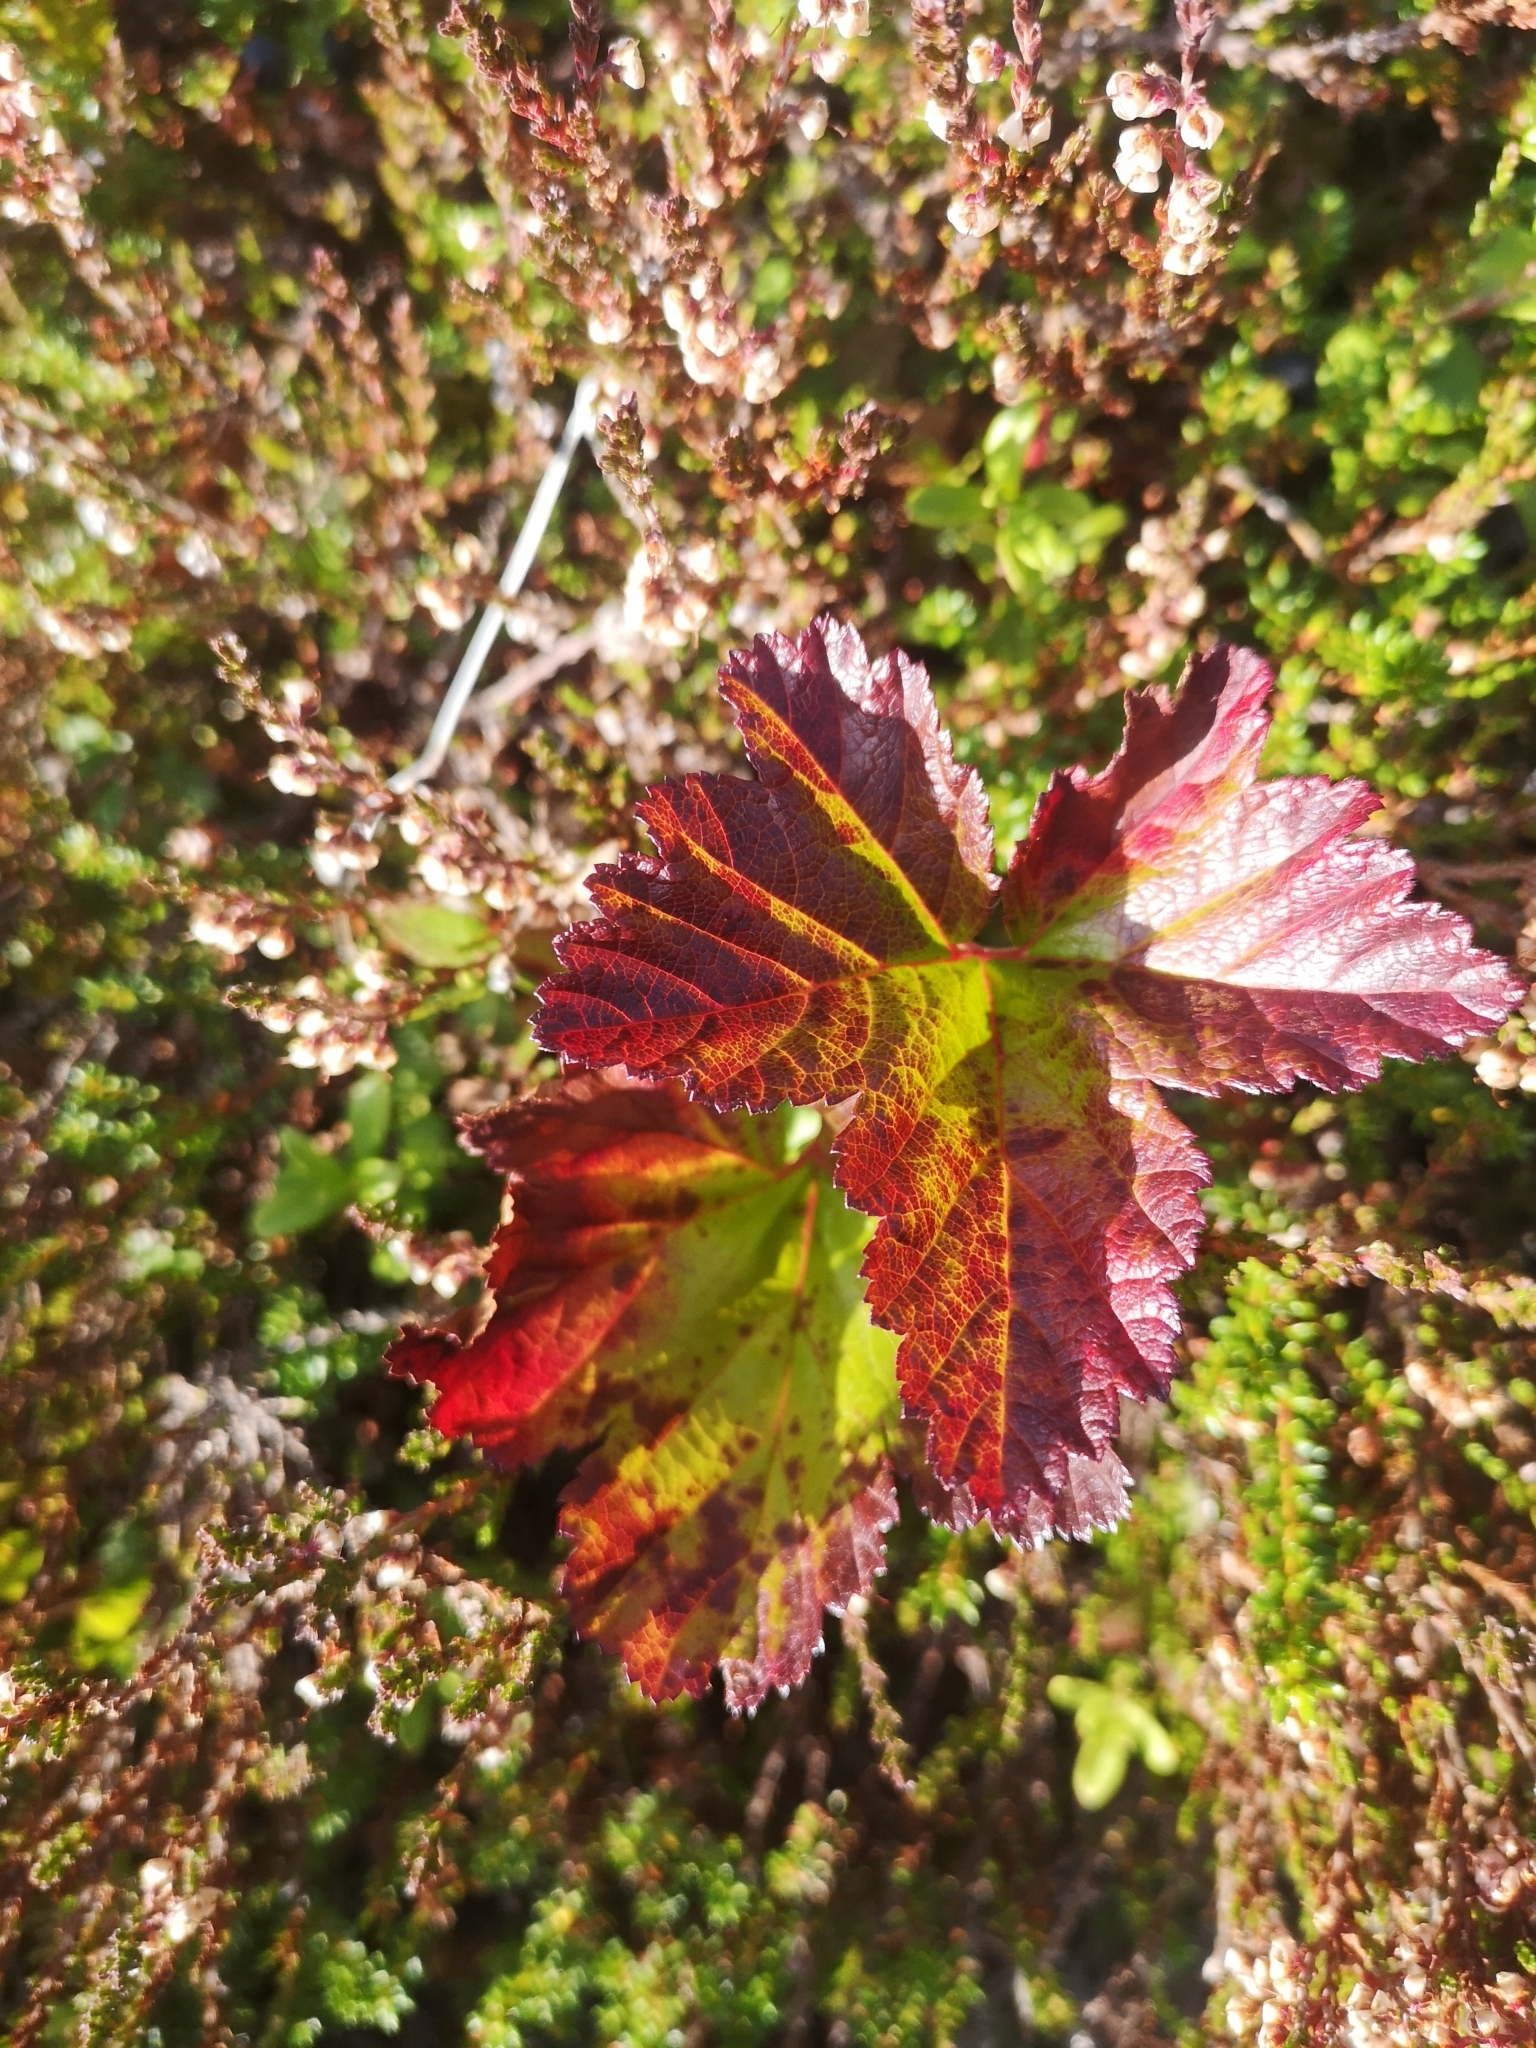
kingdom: Plantae
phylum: Tracheophyta
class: Magnoliopsida
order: Rosales
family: Rosaceae
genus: Rubus
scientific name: Rubus chamaemorus
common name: Cloudberry
